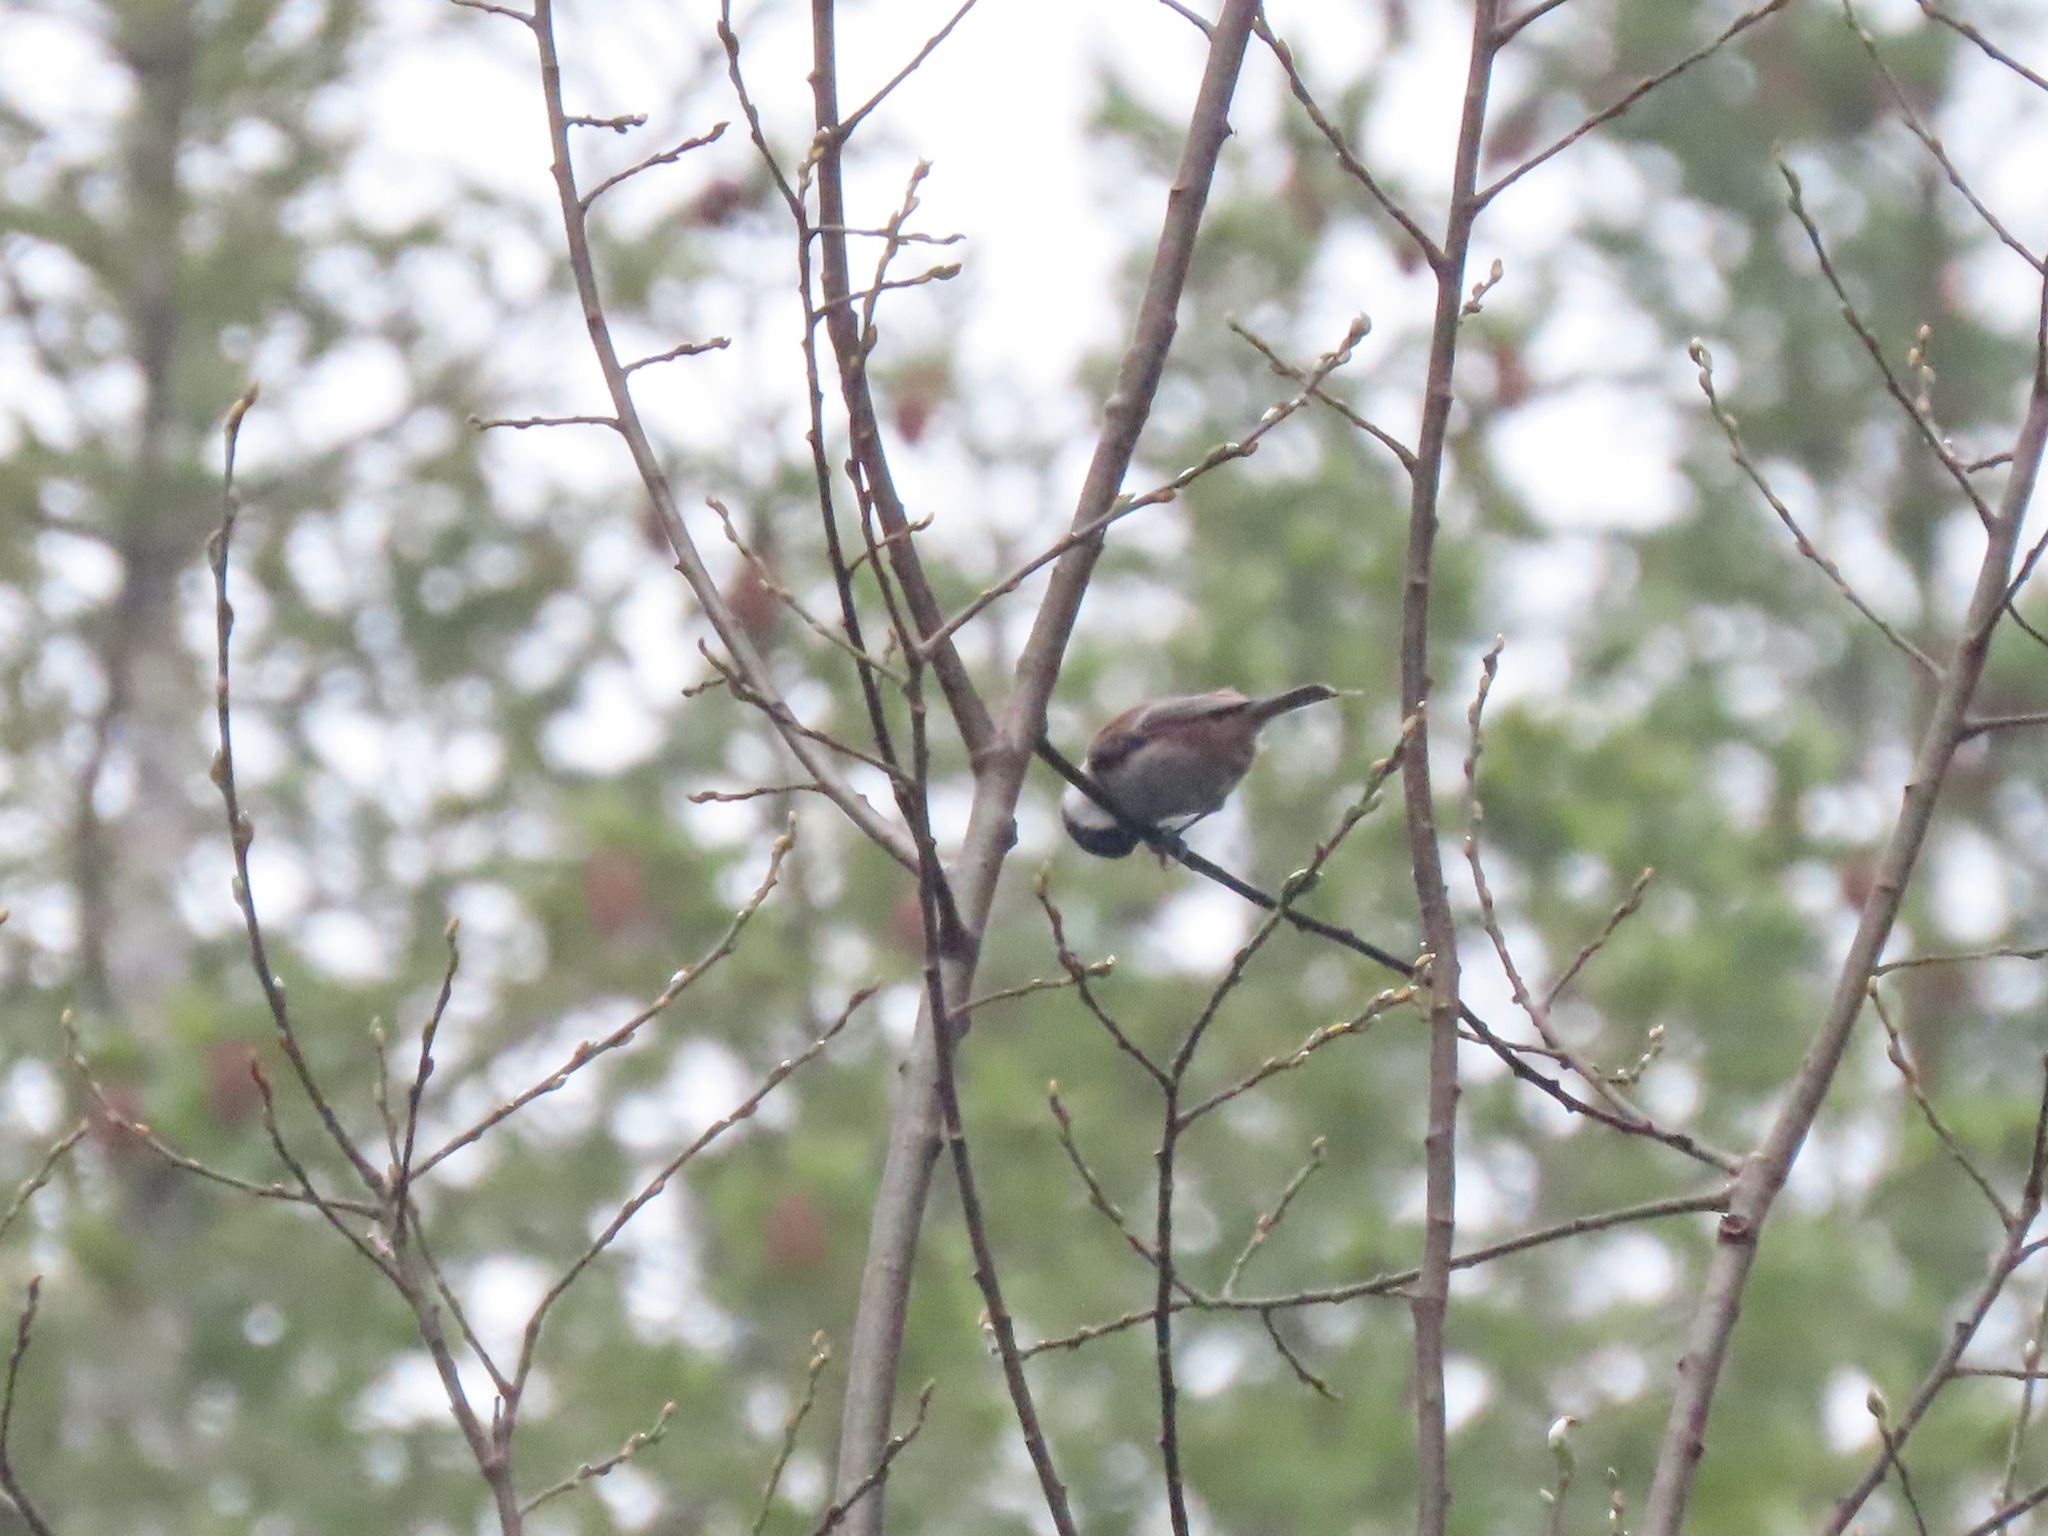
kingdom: Animalia
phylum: Chordata
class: Aves
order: Passeriformes
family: Paridae
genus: Poecile
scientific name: Poecile rufescens
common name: Chestnut-backed chickadee
